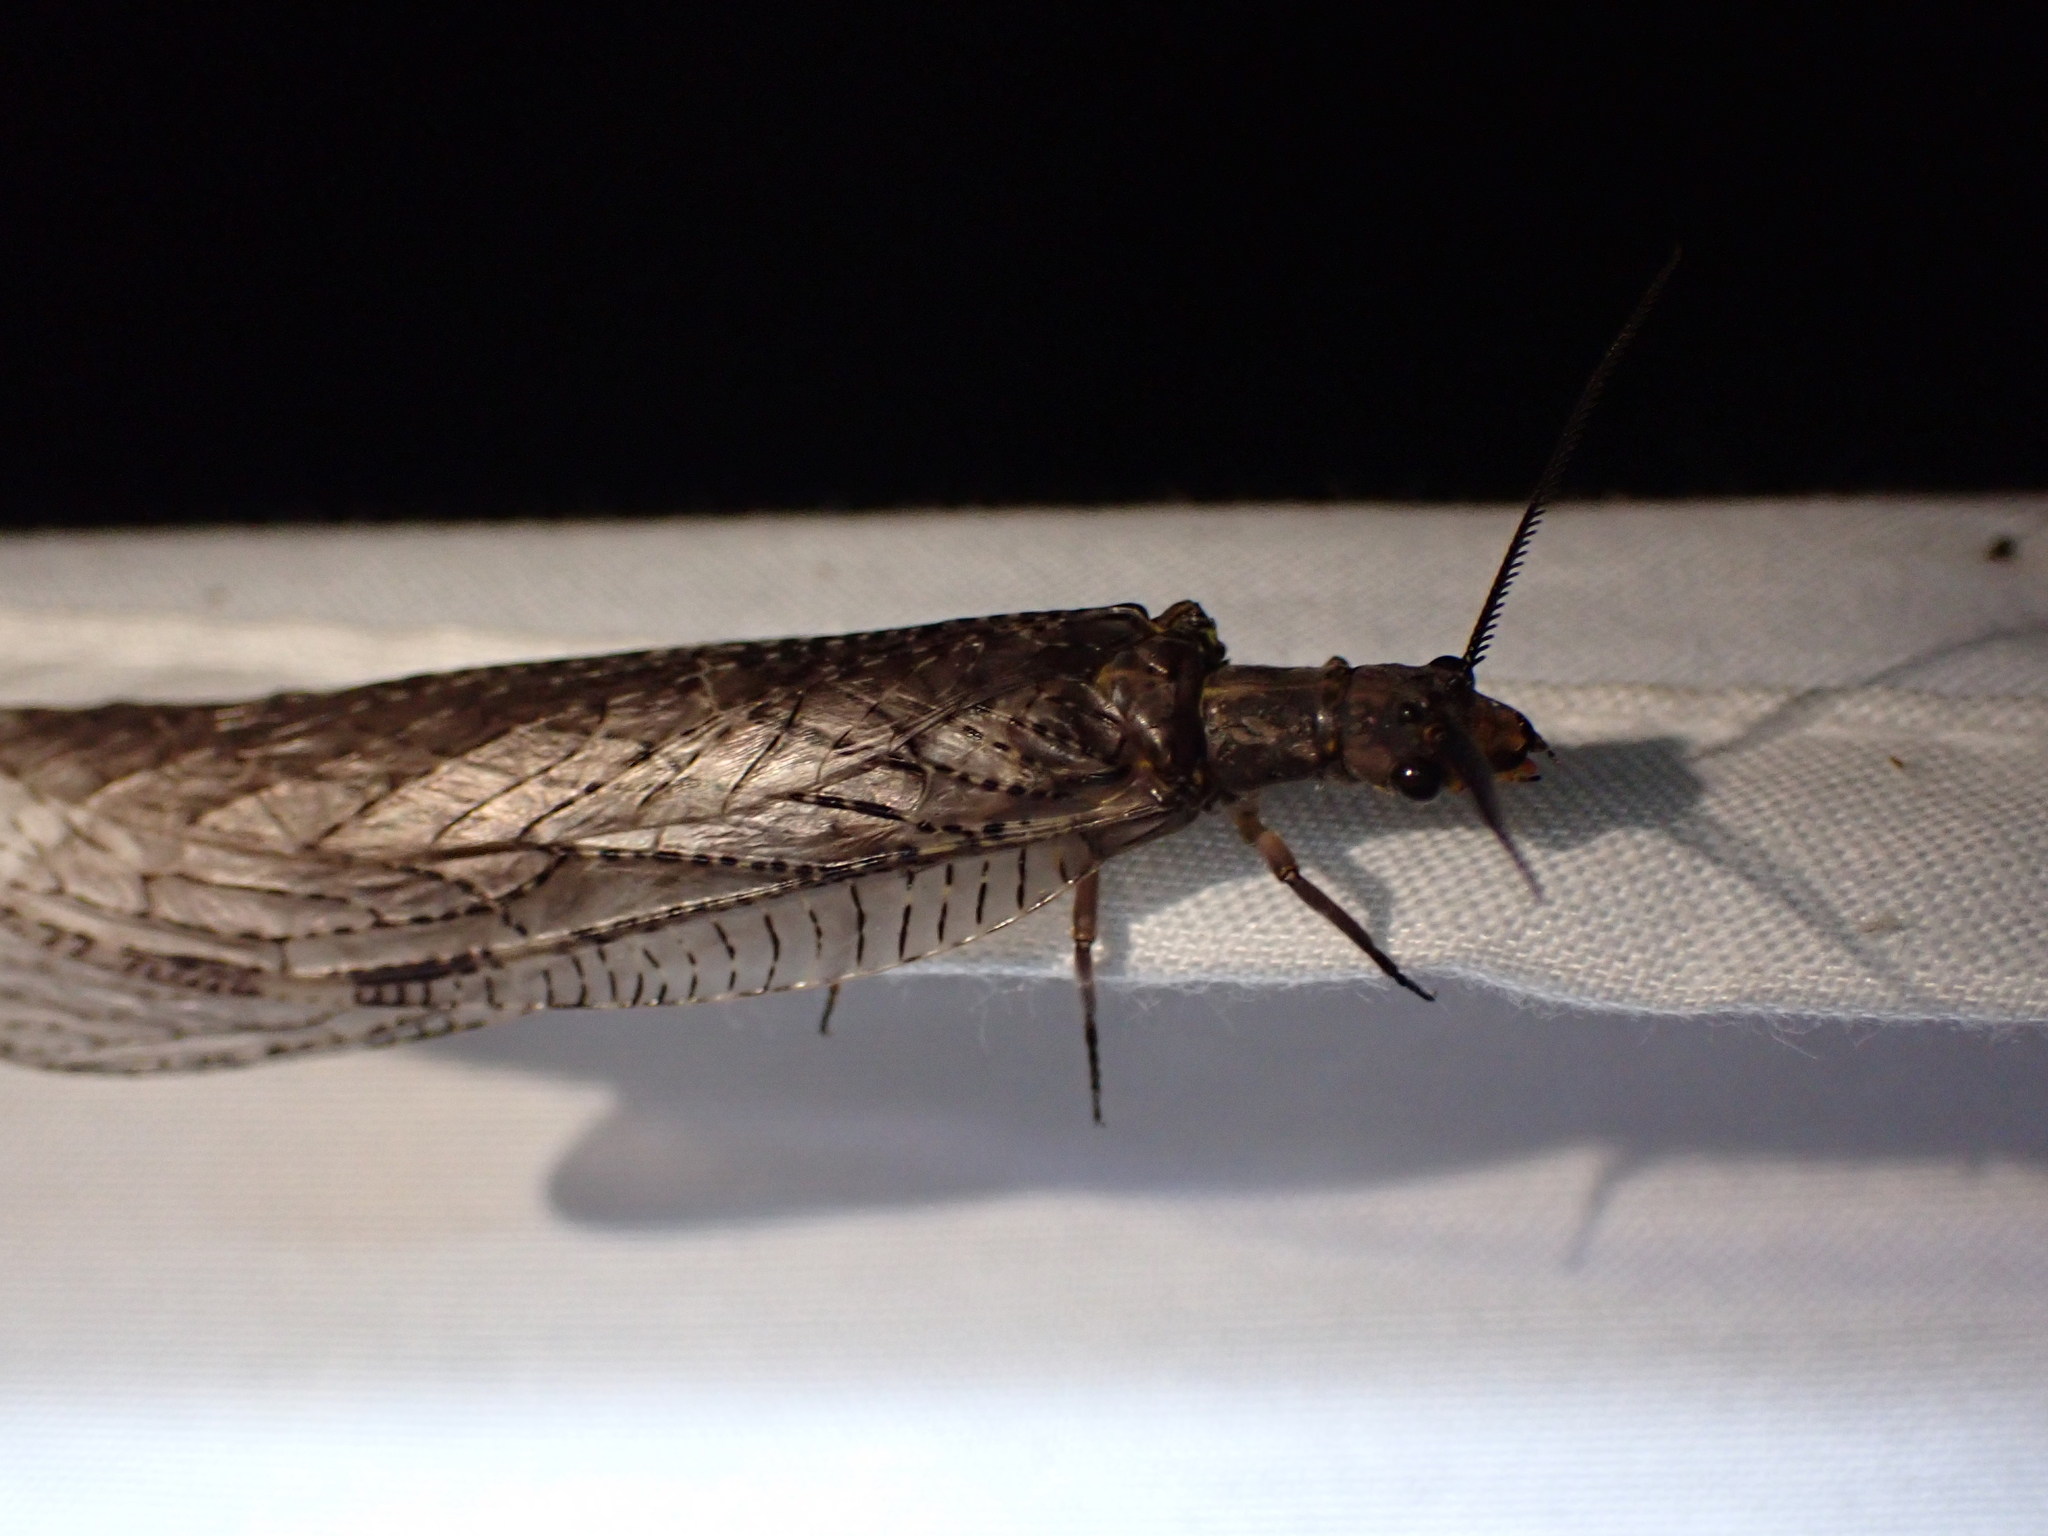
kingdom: Animalia
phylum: Arthropoda
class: Insecta
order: Megaloptera
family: Corydalidae
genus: Chauliodes
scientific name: Chauliodes pectinicornis
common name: Summer fishfly
